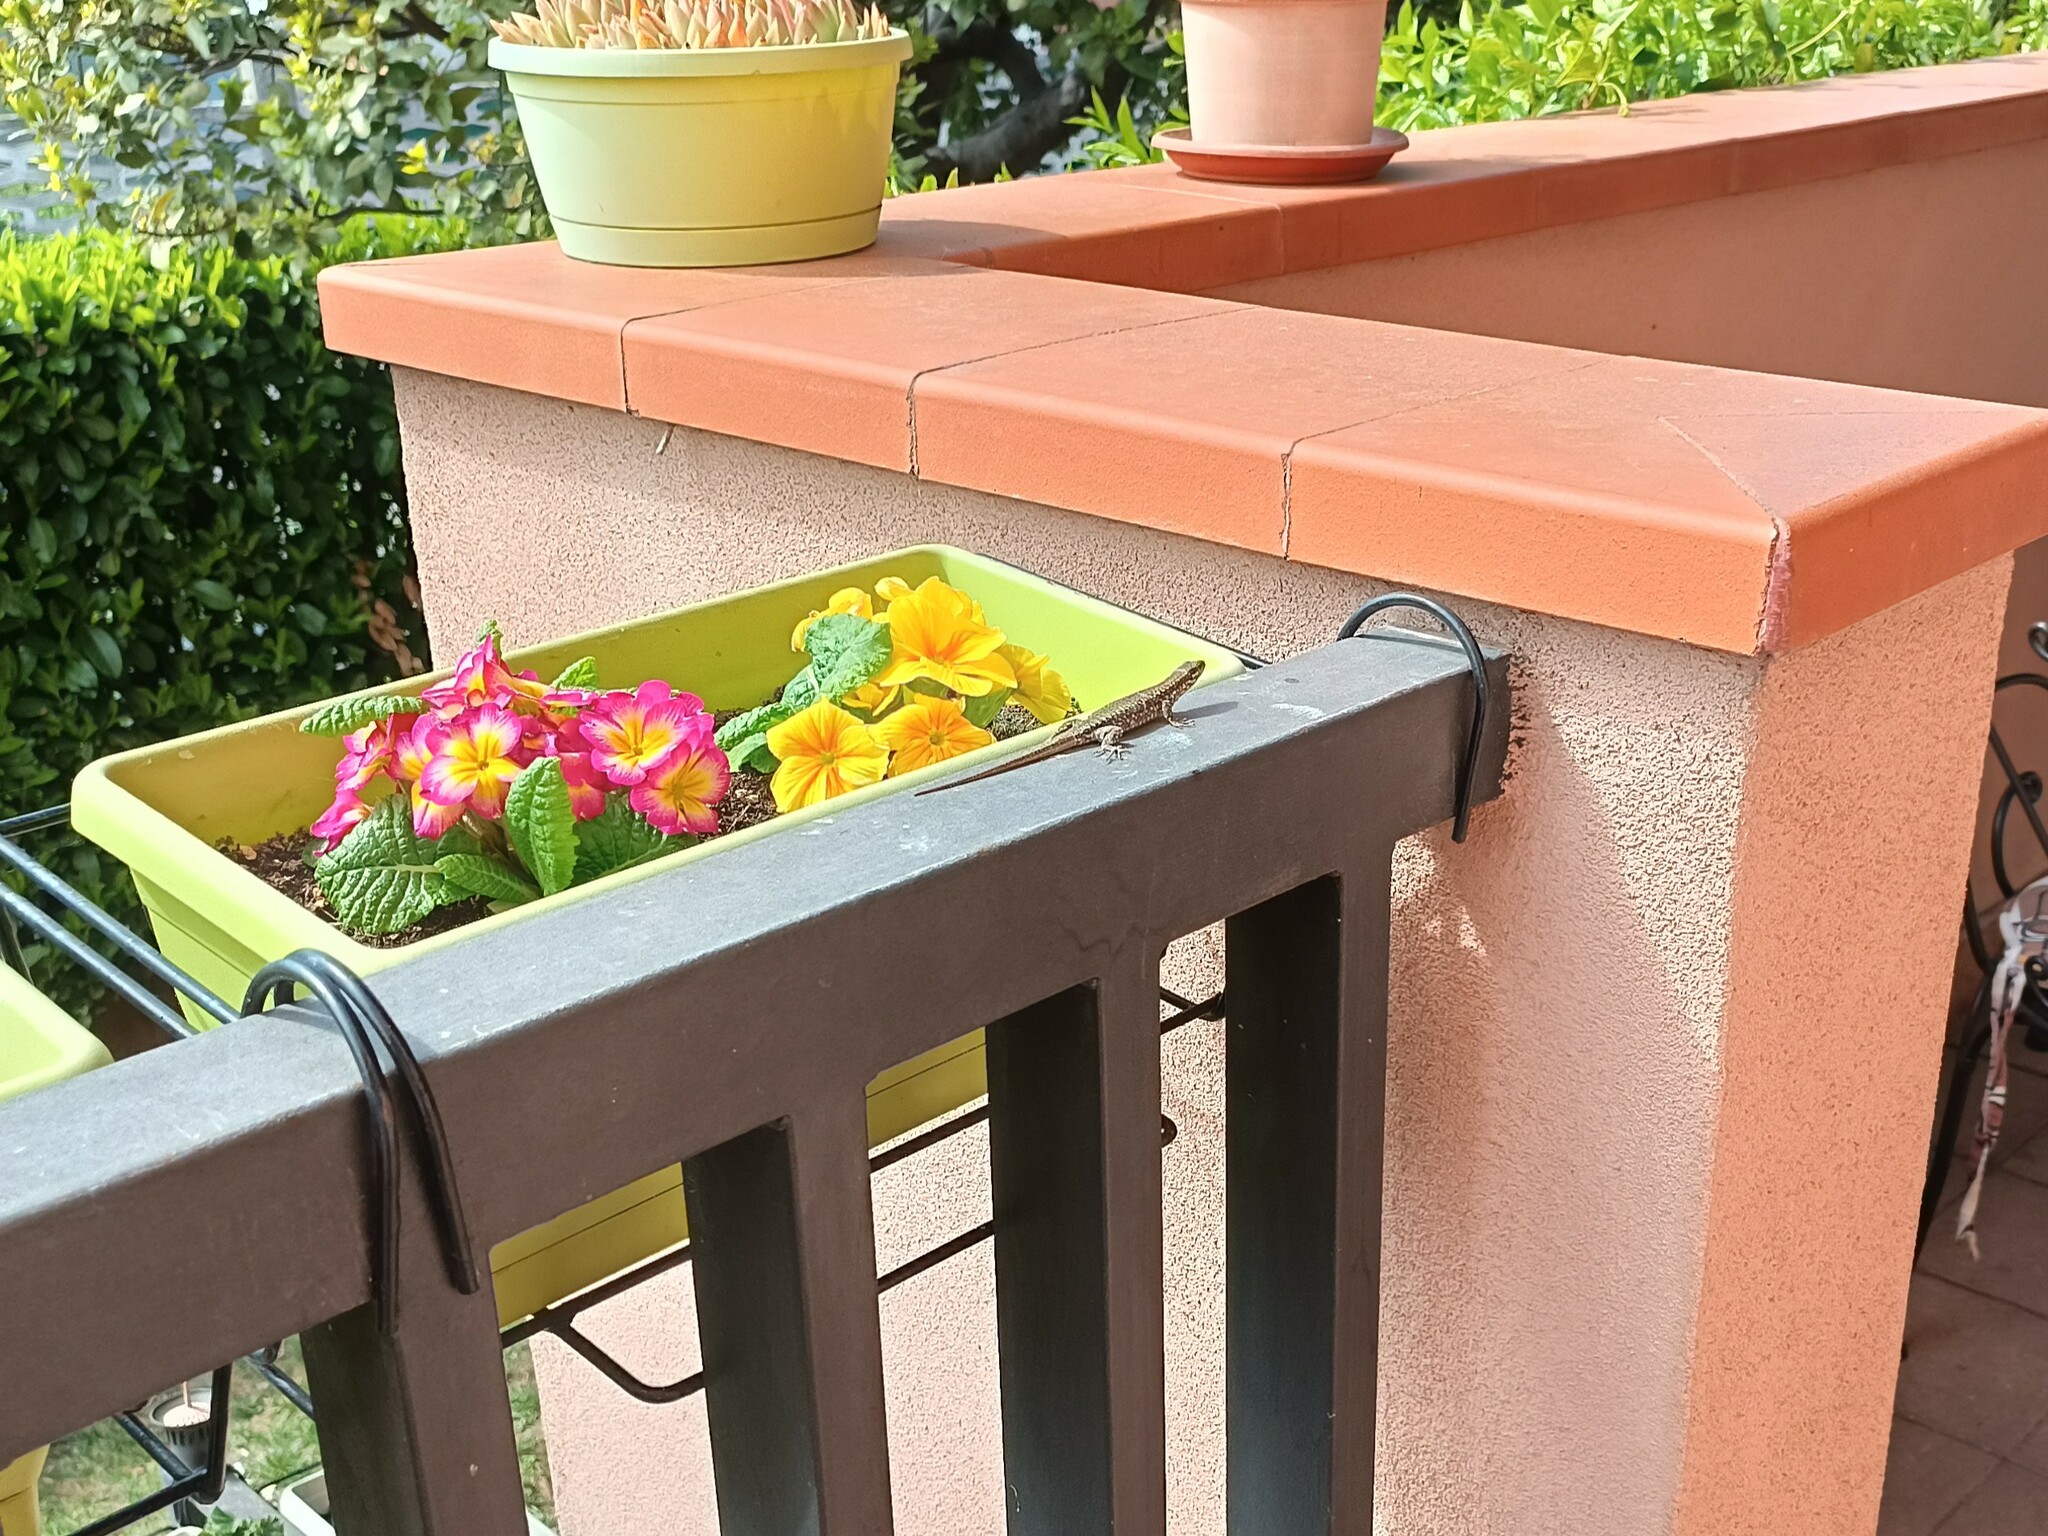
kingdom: Animalia
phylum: Chordata
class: Squamata
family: Lacertidae
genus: Podarcis
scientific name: Podarcis muralis
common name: Common wall lizard
